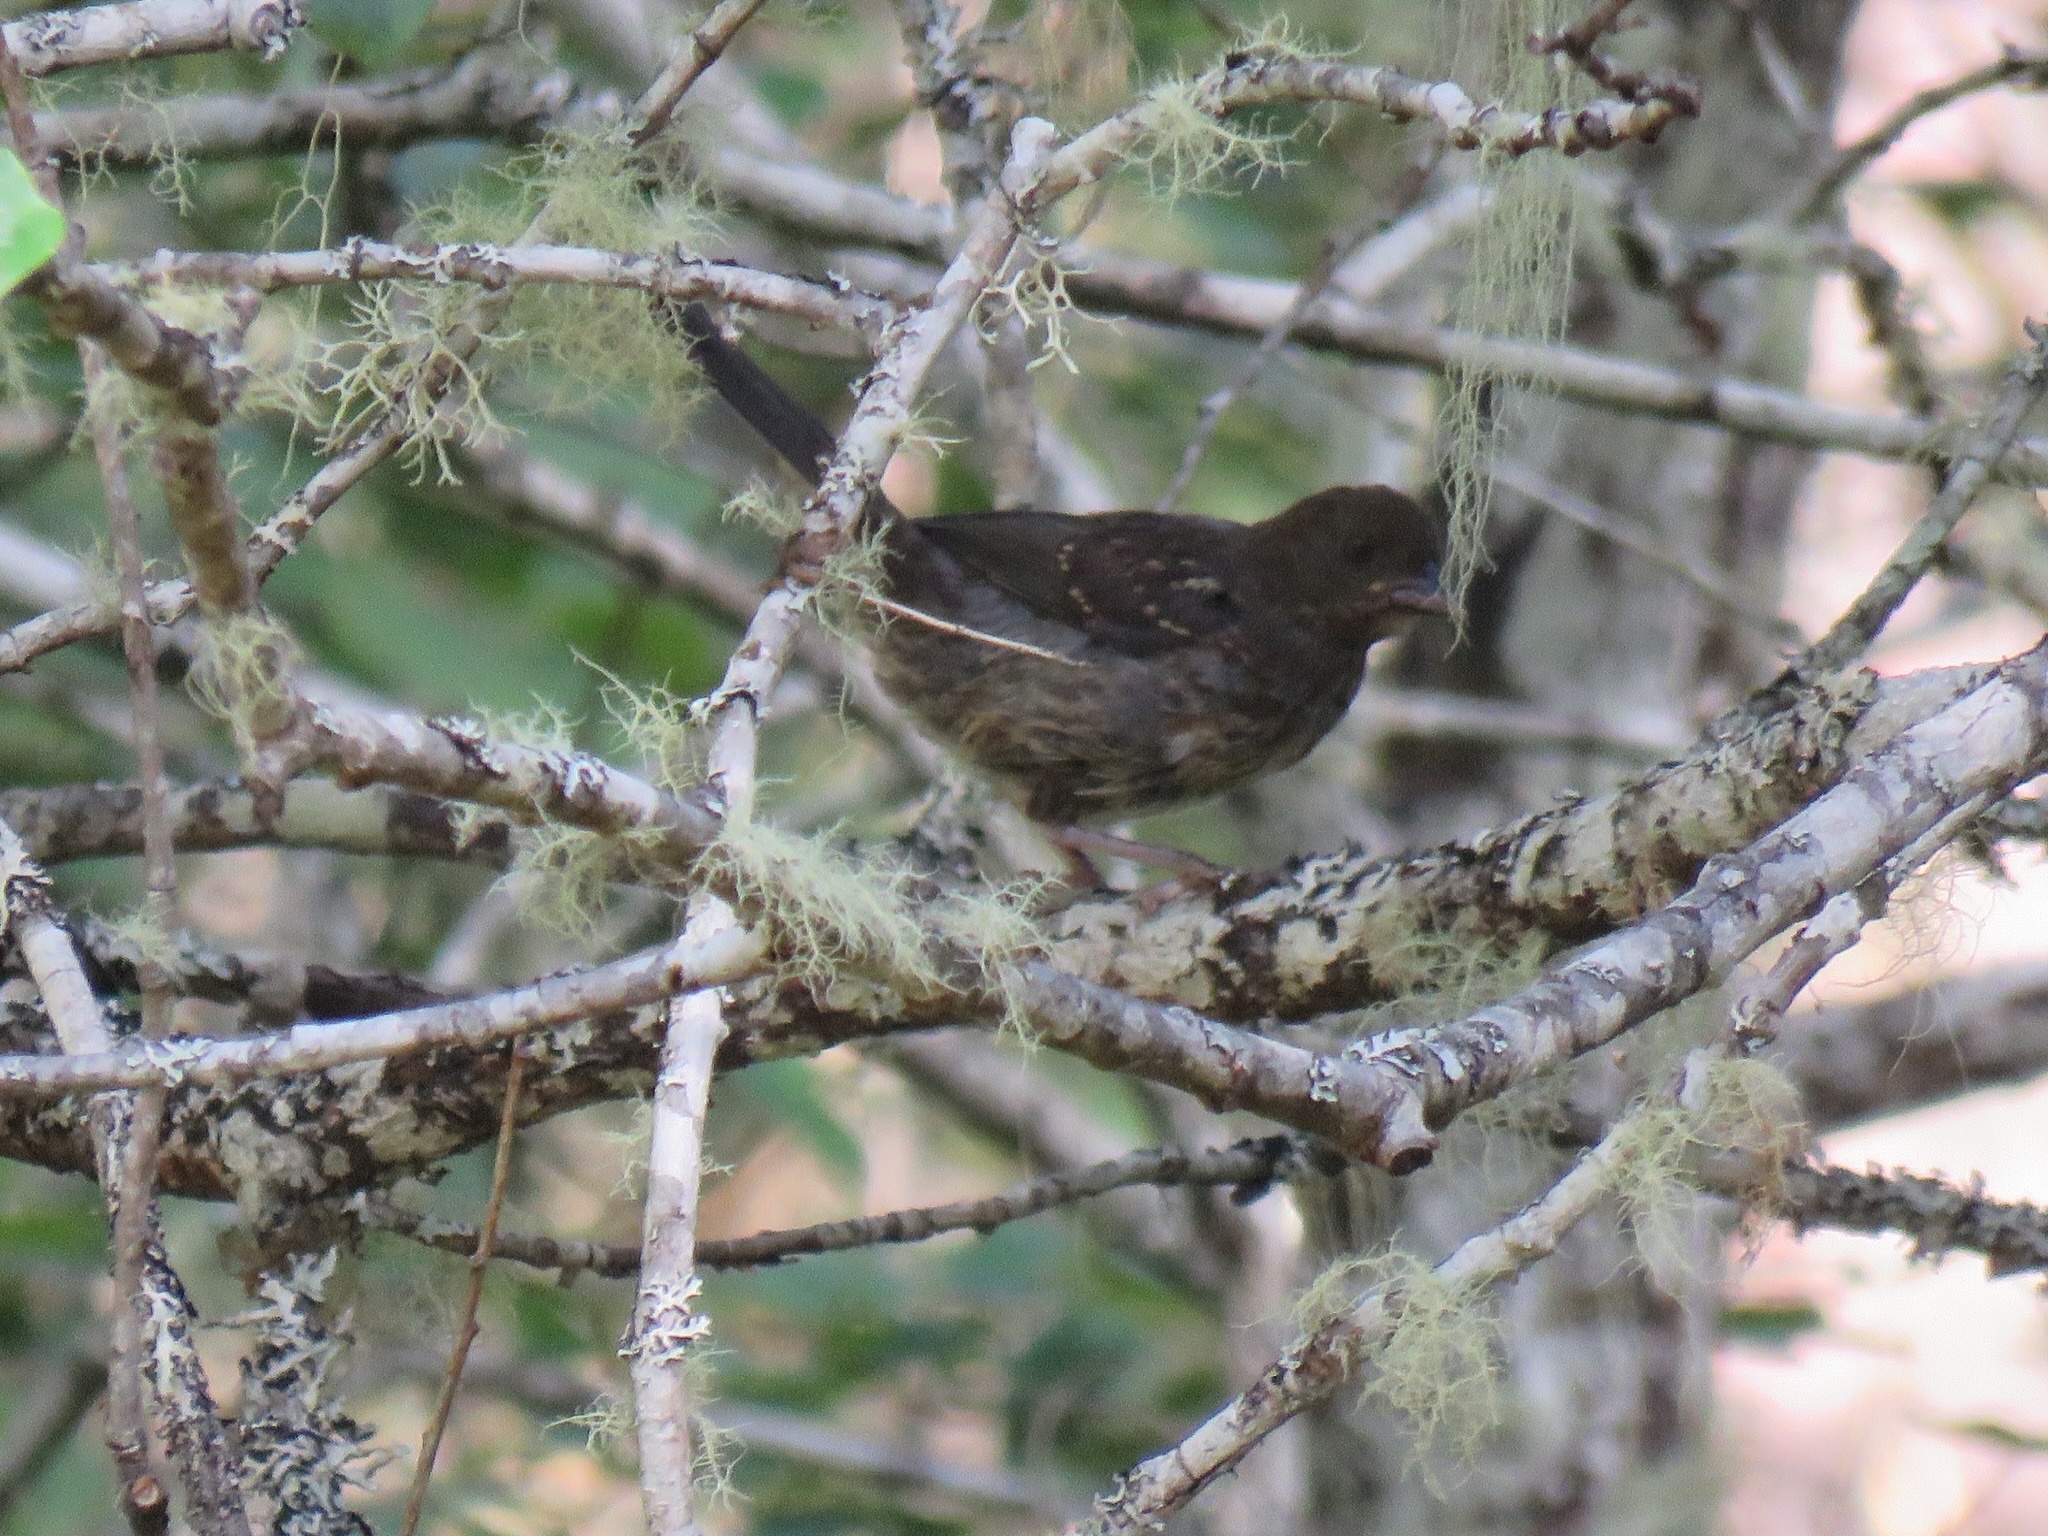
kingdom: Animalia
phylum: Chordata
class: Aves
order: Passeriformes
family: Passerellidae
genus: Pipilo
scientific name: Pipilo maculatus
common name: Spotted towhee
